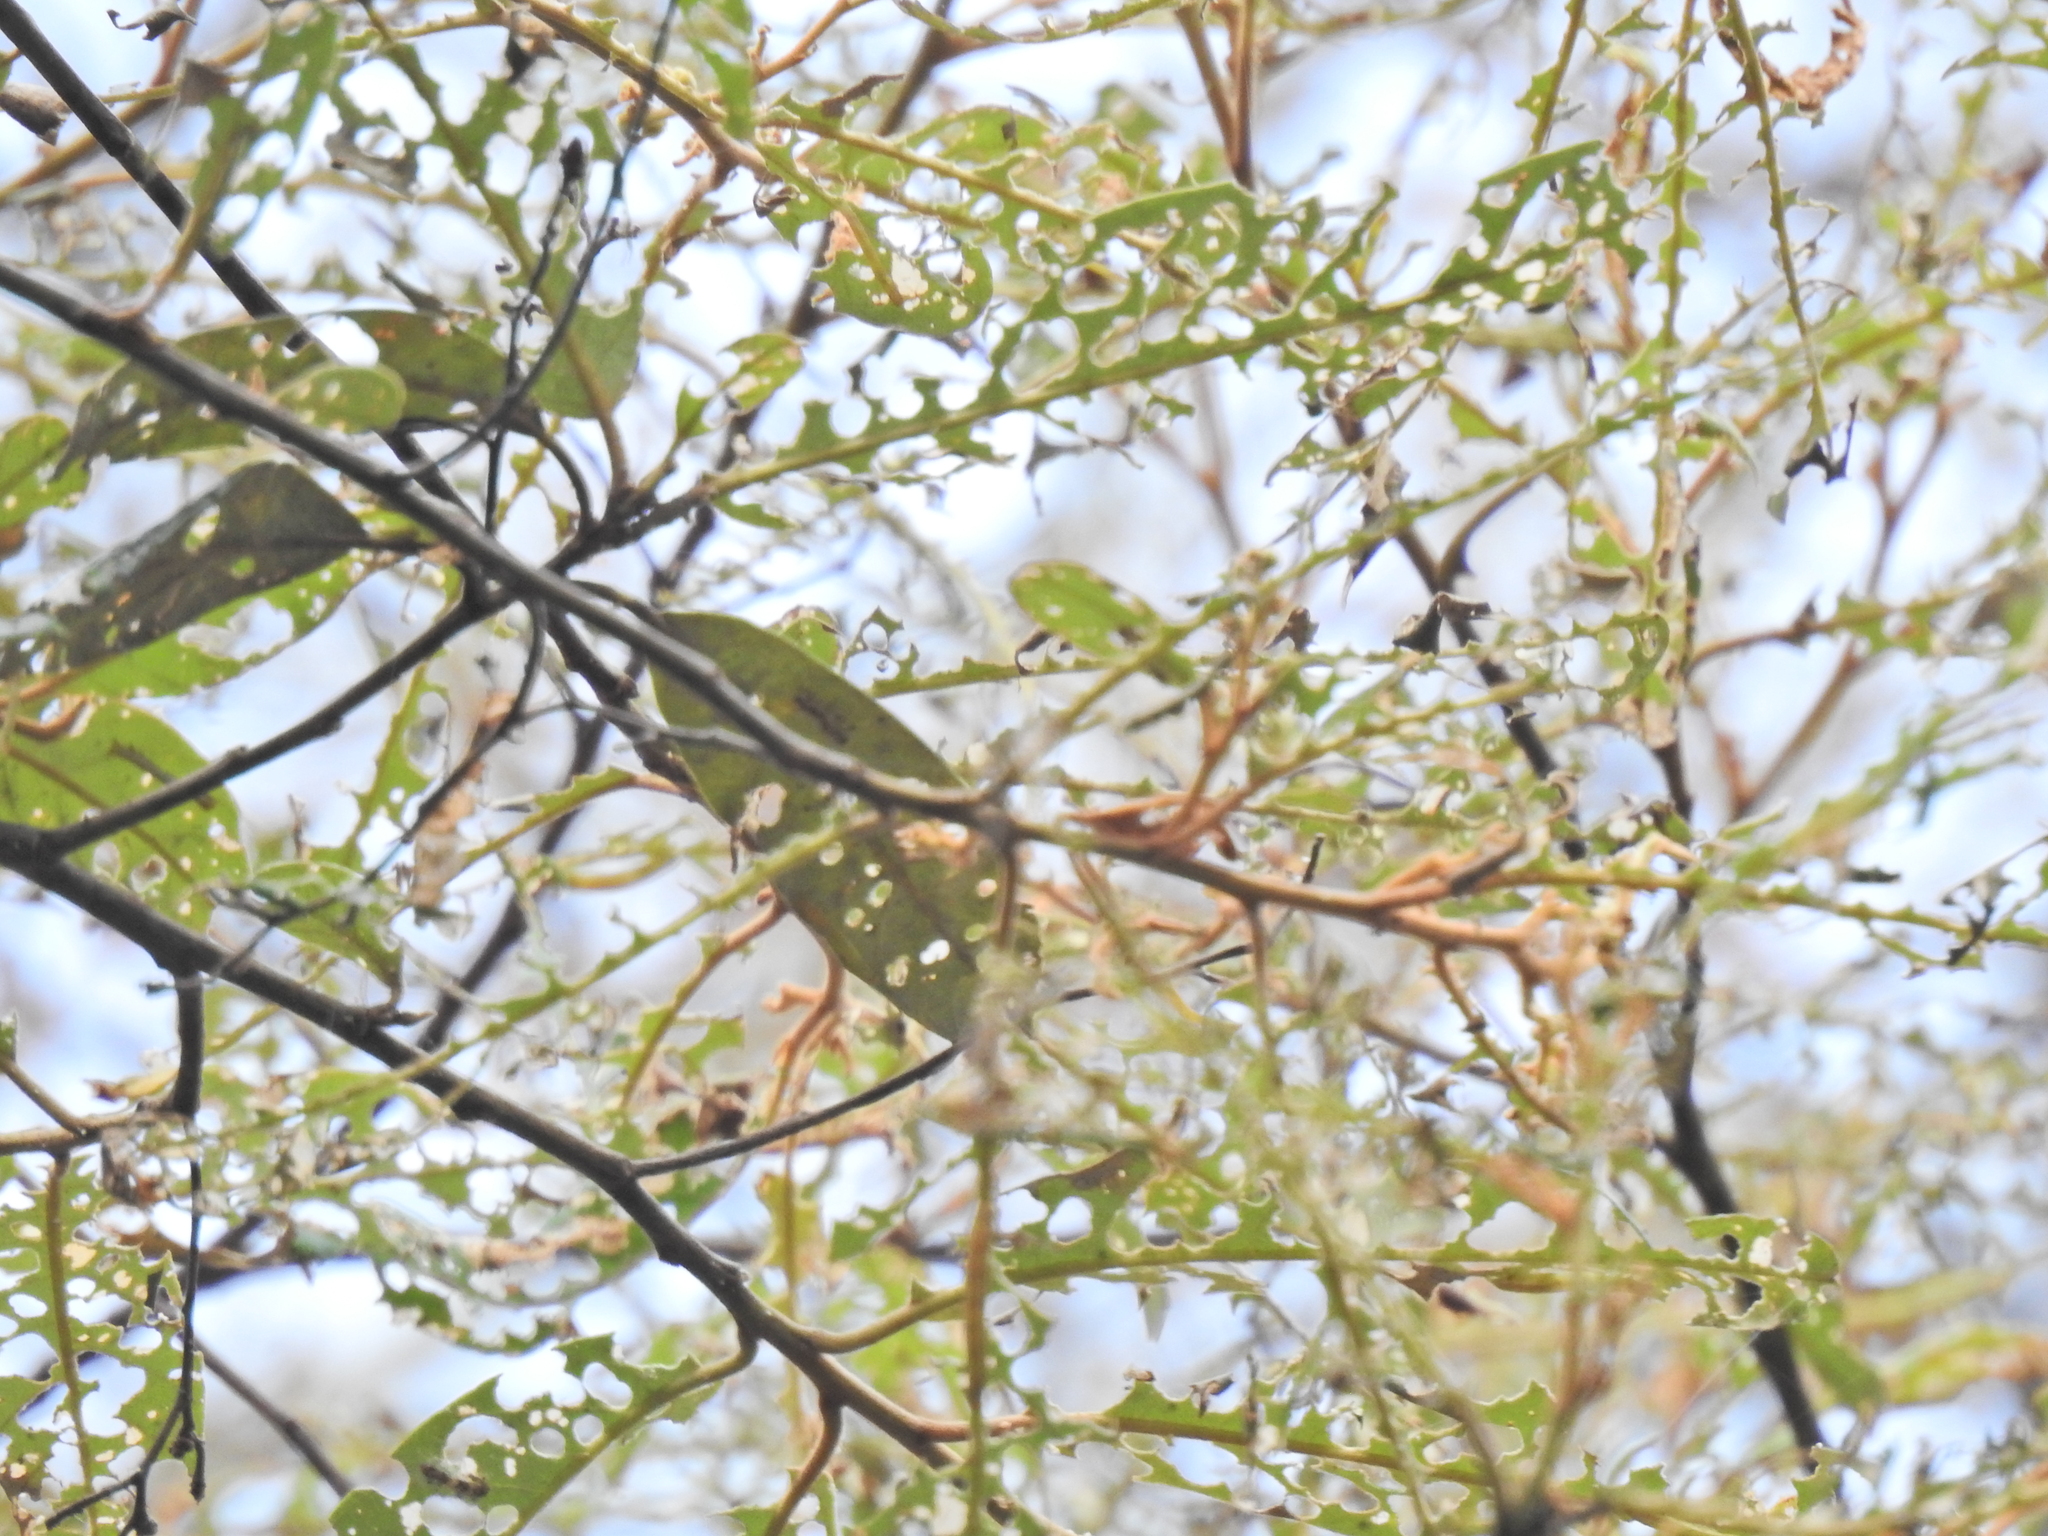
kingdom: Plantae
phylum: Tracheophyta
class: Magnoliopsida
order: Rosales
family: Rhamnaceae
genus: Alphitonia
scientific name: Alphitonia excelsa
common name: Red ash
